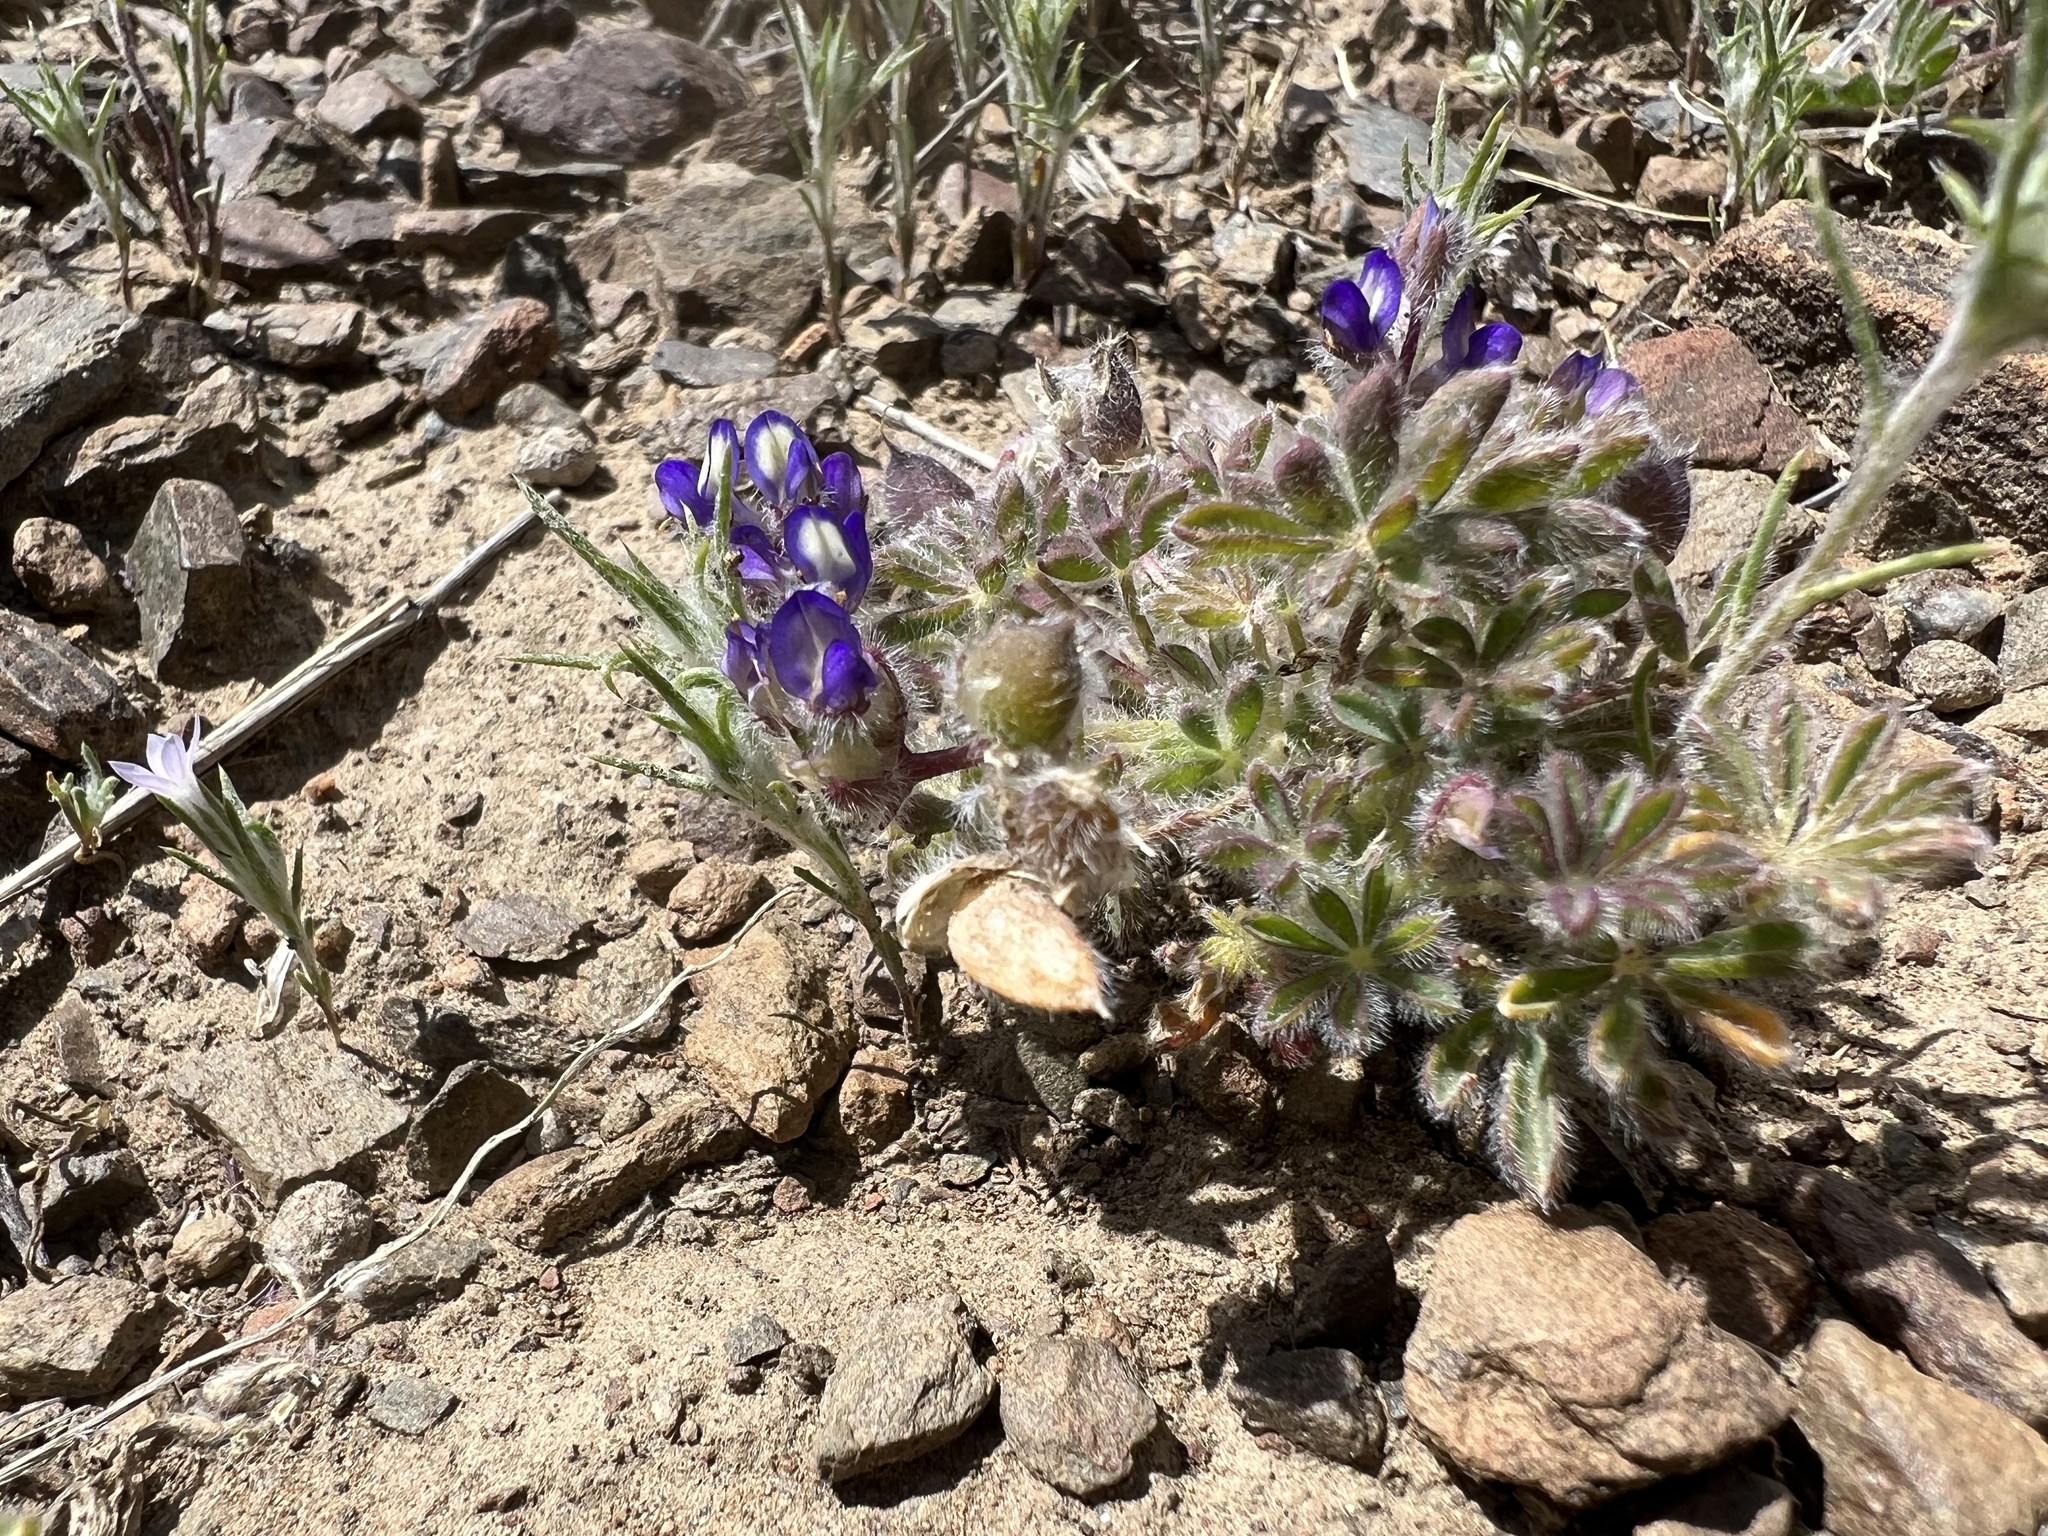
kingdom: Plantae
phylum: Tracheophyta
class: Magnoliopsida
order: Fabales
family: Fabaceae
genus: Lupinus
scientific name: Lupinus brevicaulis
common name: Sand lupine
